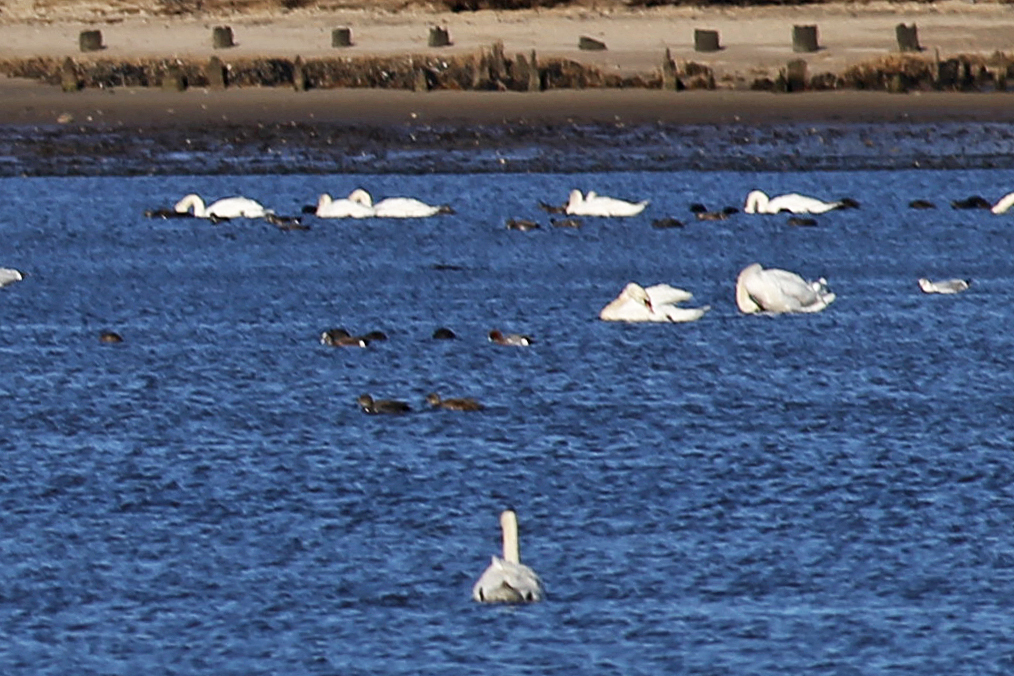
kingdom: Animalia
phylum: Chordata
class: Aves
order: Anseriformes
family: Anatidae
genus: Mareca
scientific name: Mareca penelope
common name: Eurasian wigeon
